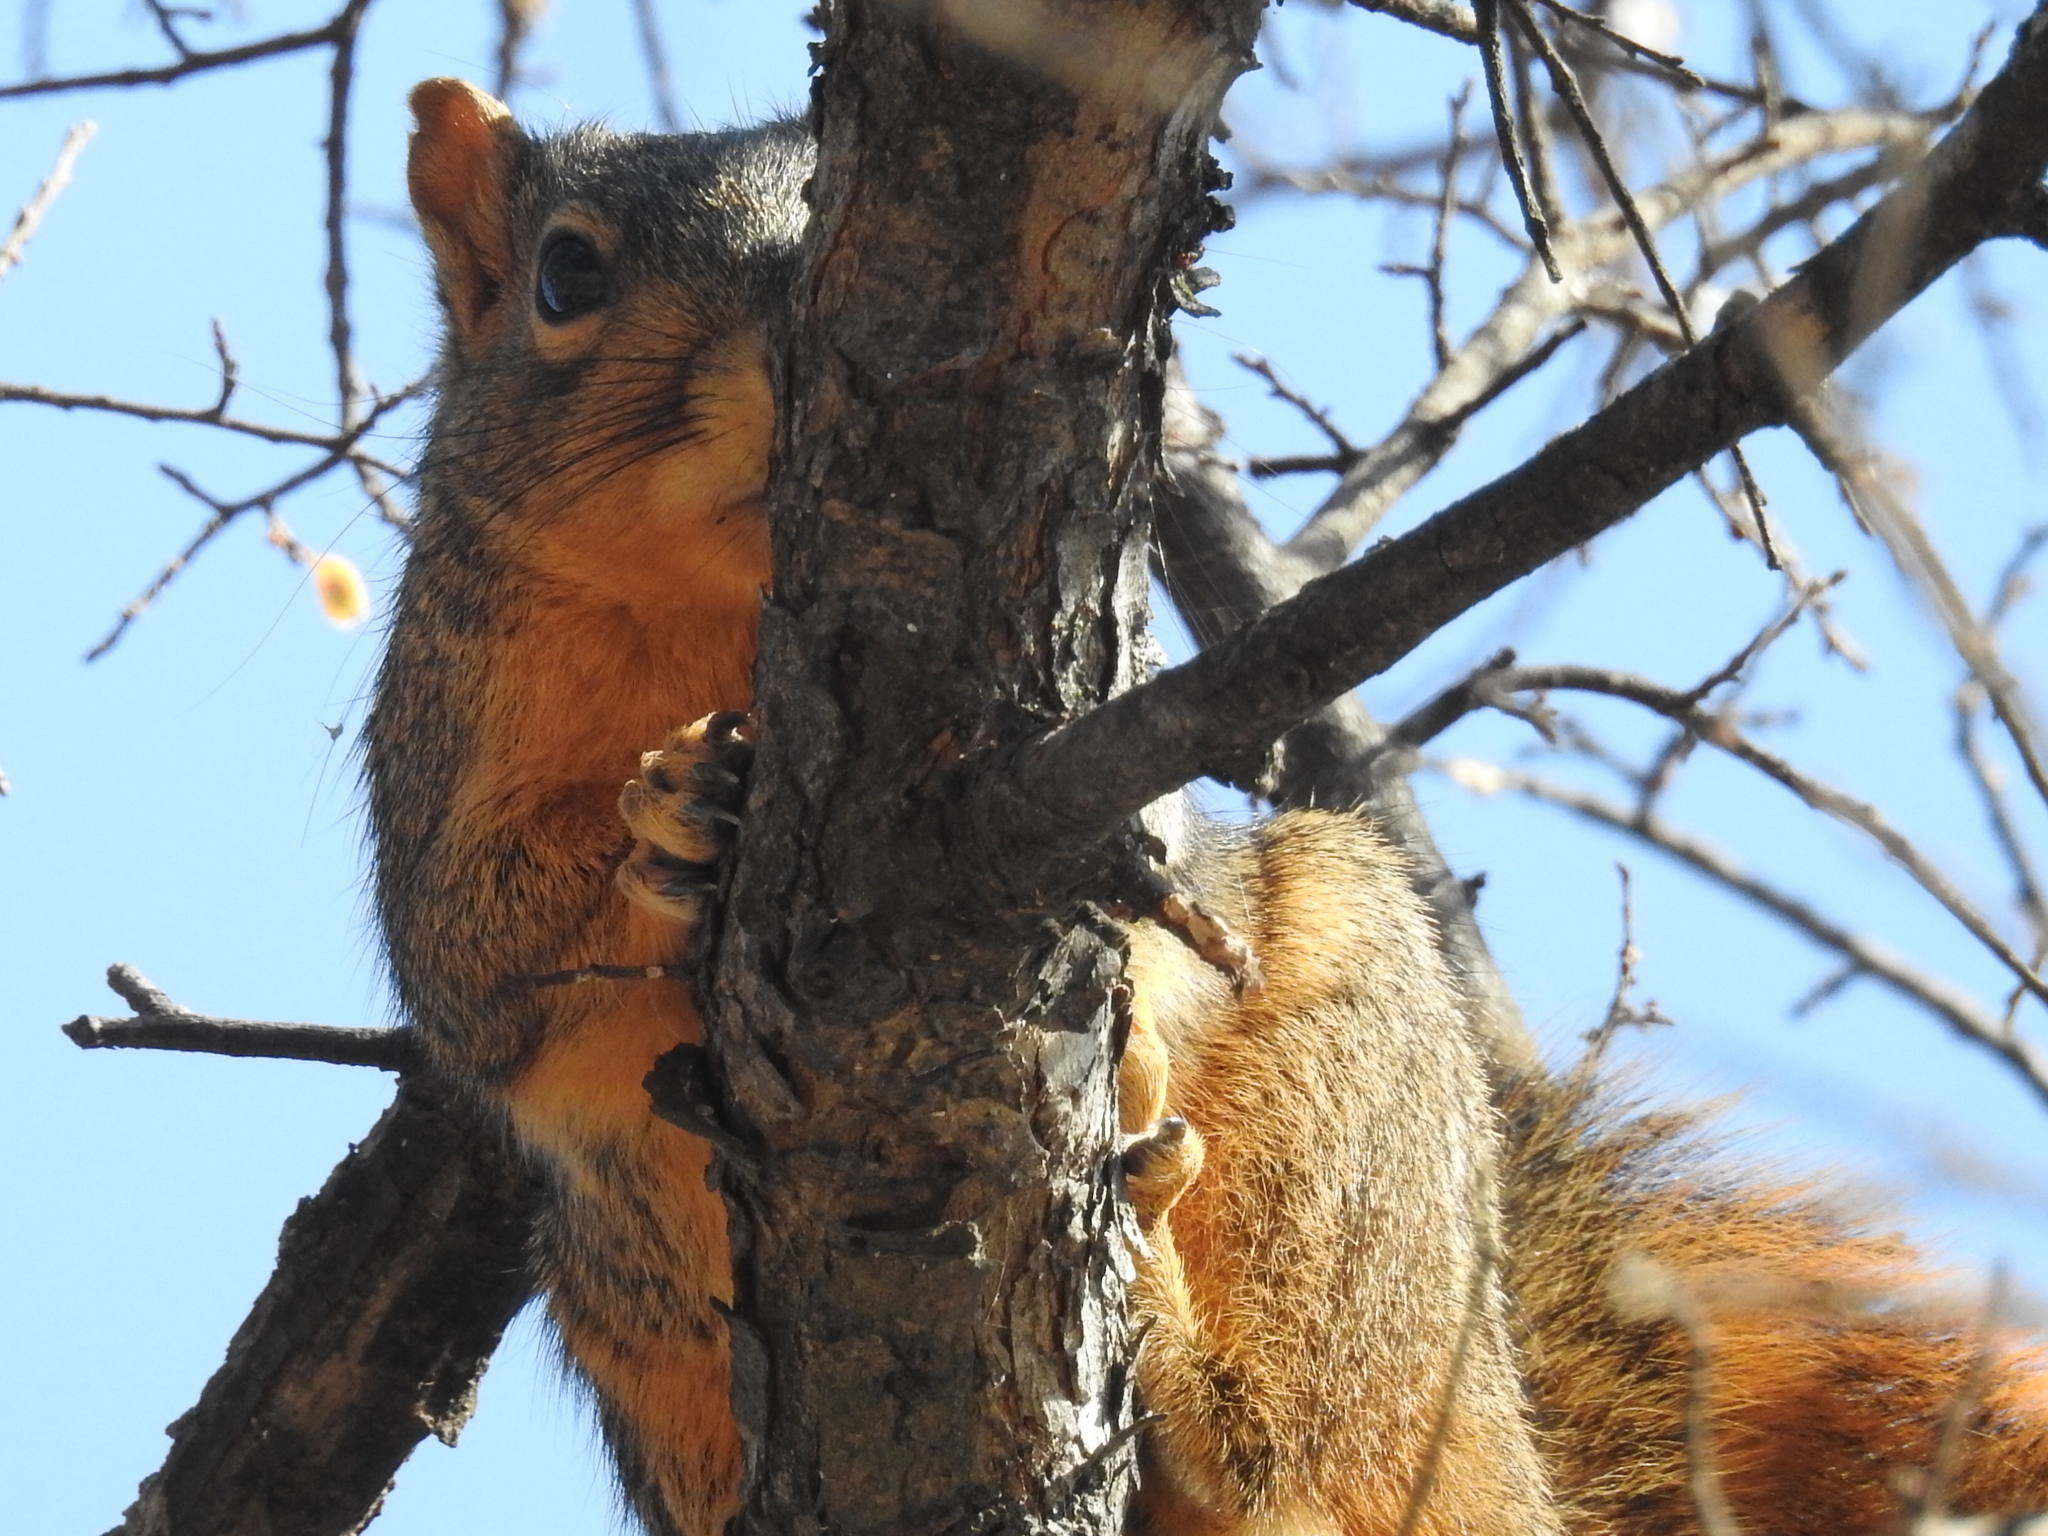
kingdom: Animalia
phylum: Chordata
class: Mammalia
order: Rodentia
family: Sciuridae
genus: Sciurus
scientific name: Sciurus niger
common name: Fox squirrel
